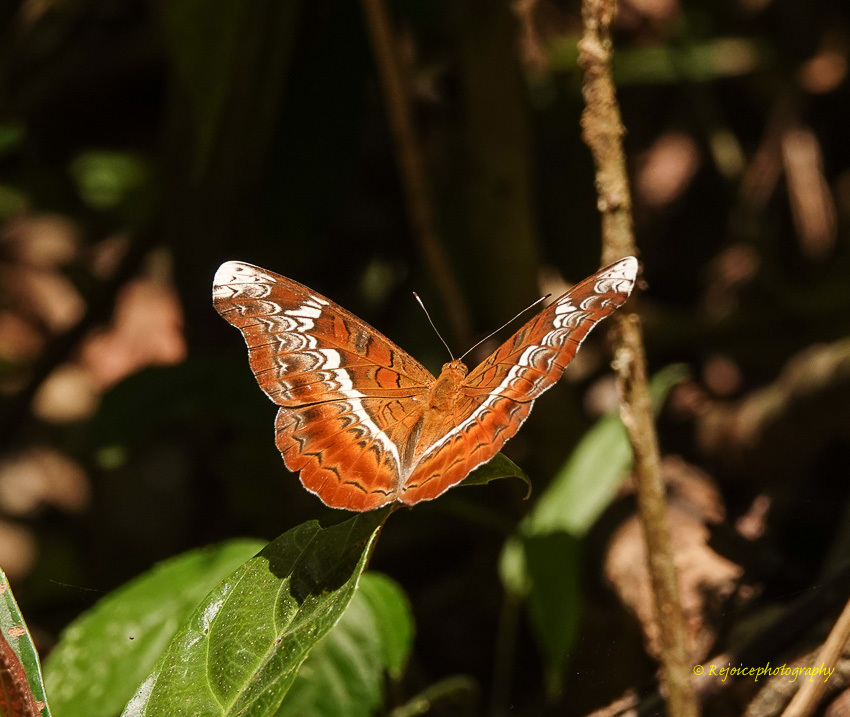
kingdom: Animalia
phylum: Arthropoda
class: Insecta
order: Lepidoptera
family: Nymphalidae
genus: Lebadea
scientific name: Lebadea martha
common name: Knight
